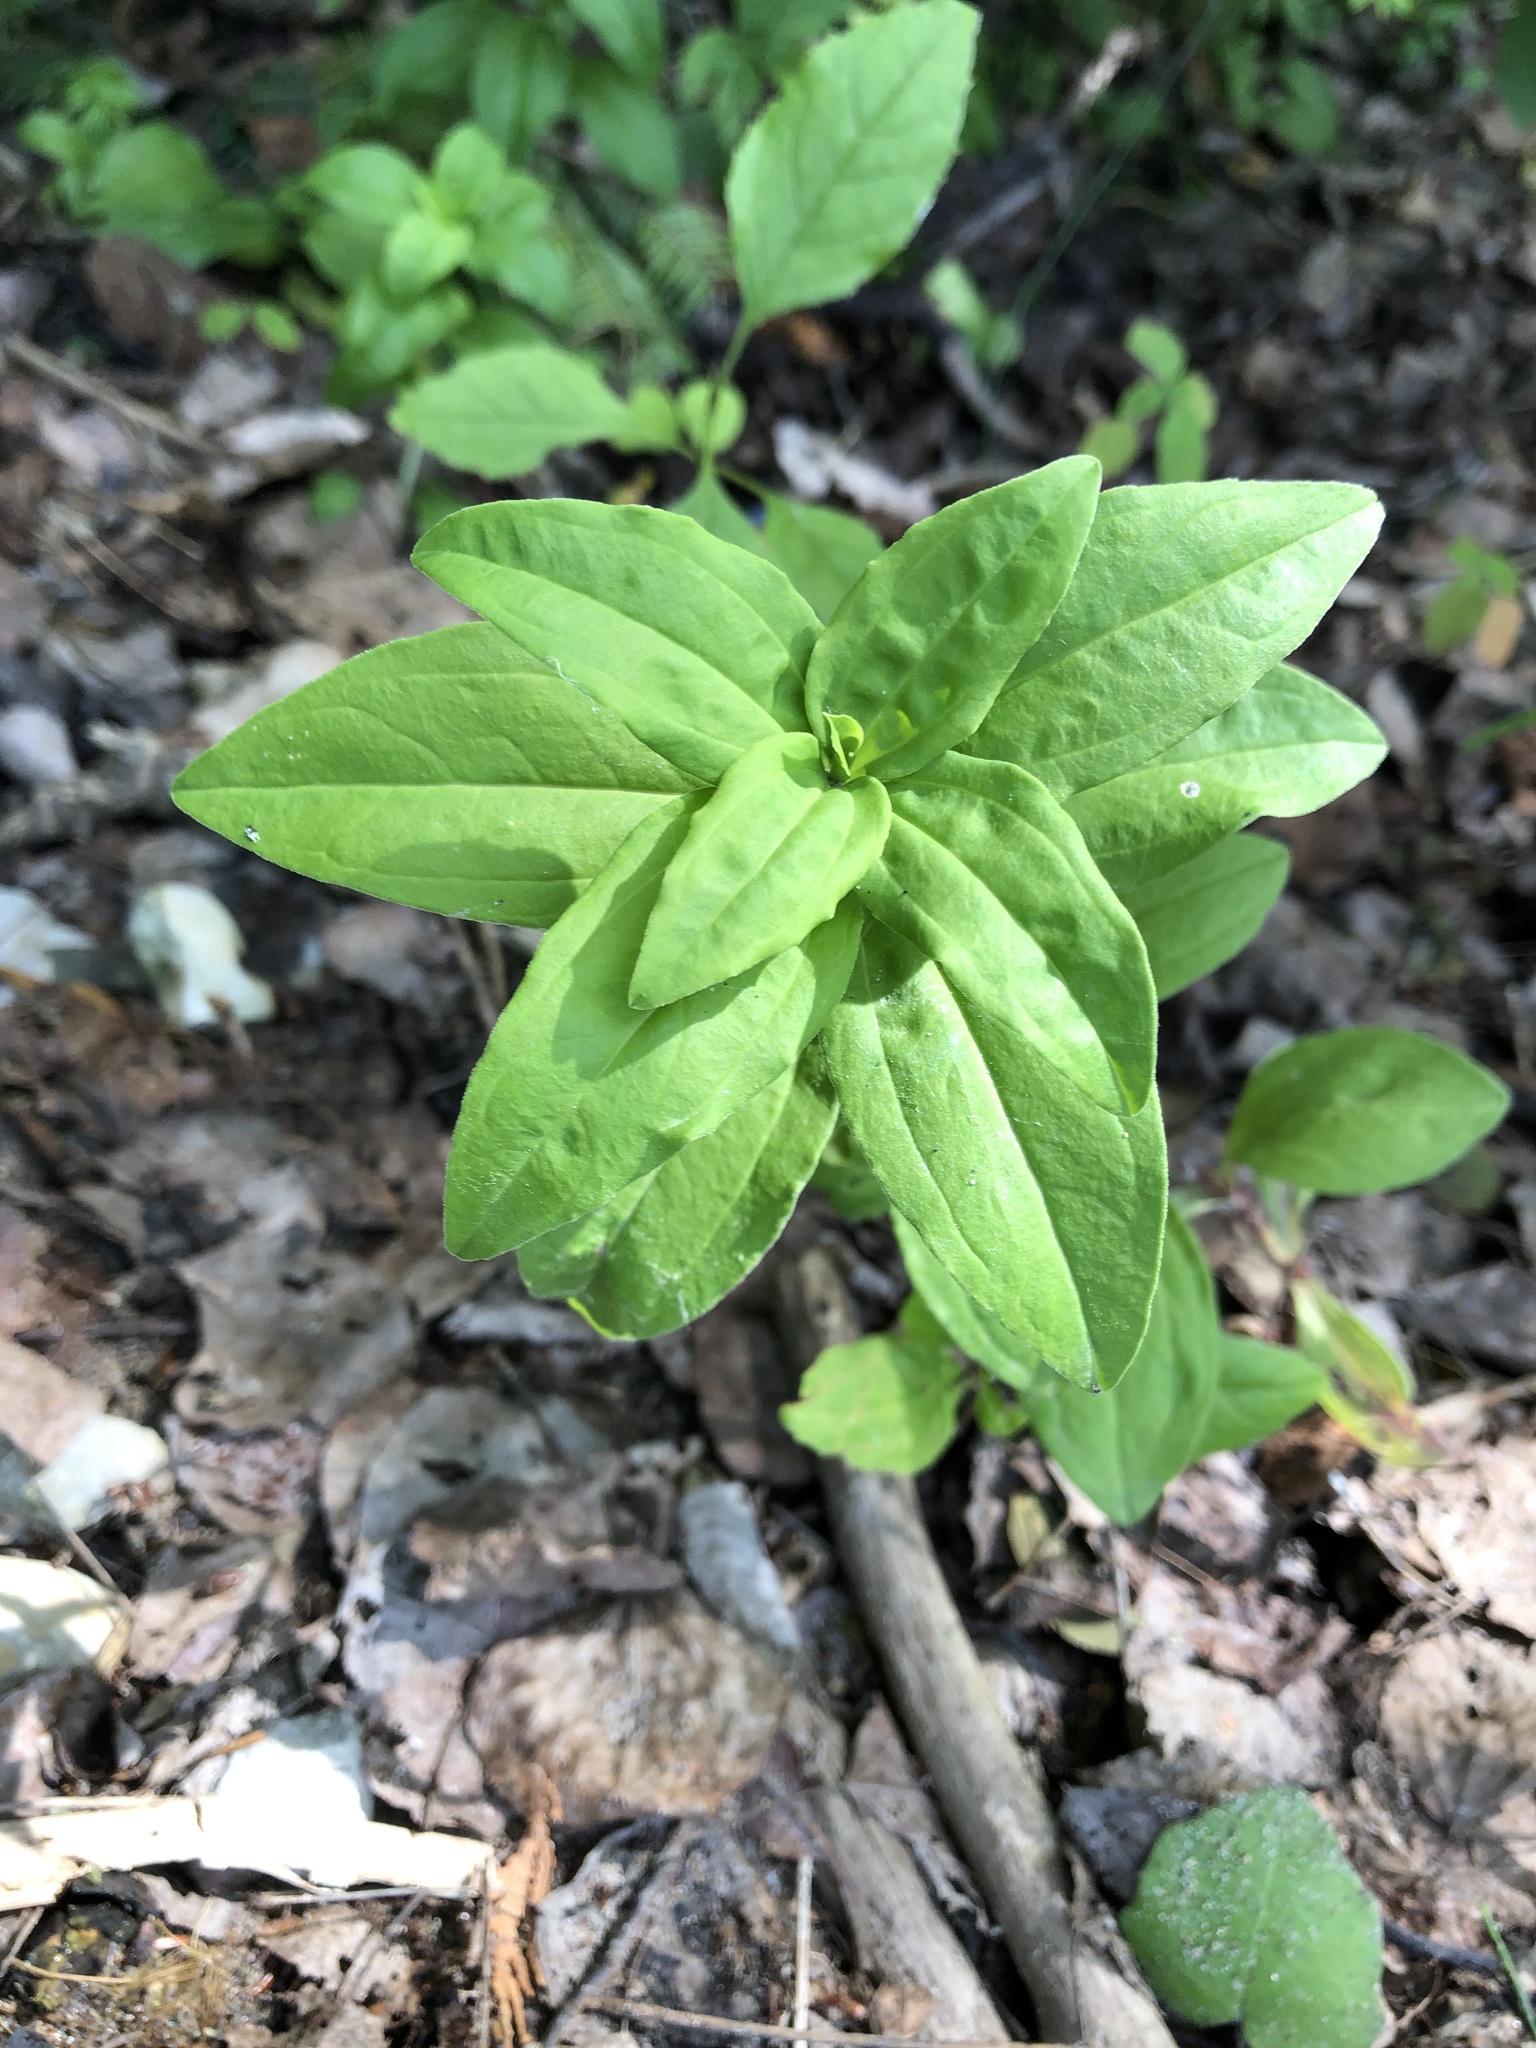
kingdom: Plantae
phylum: Tracheophyta
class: Magnoliopsida
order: Caryophyllales
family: Caryophyllaceae
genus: Saponaria
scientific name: Saponaria officinalis
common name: Soapwort
